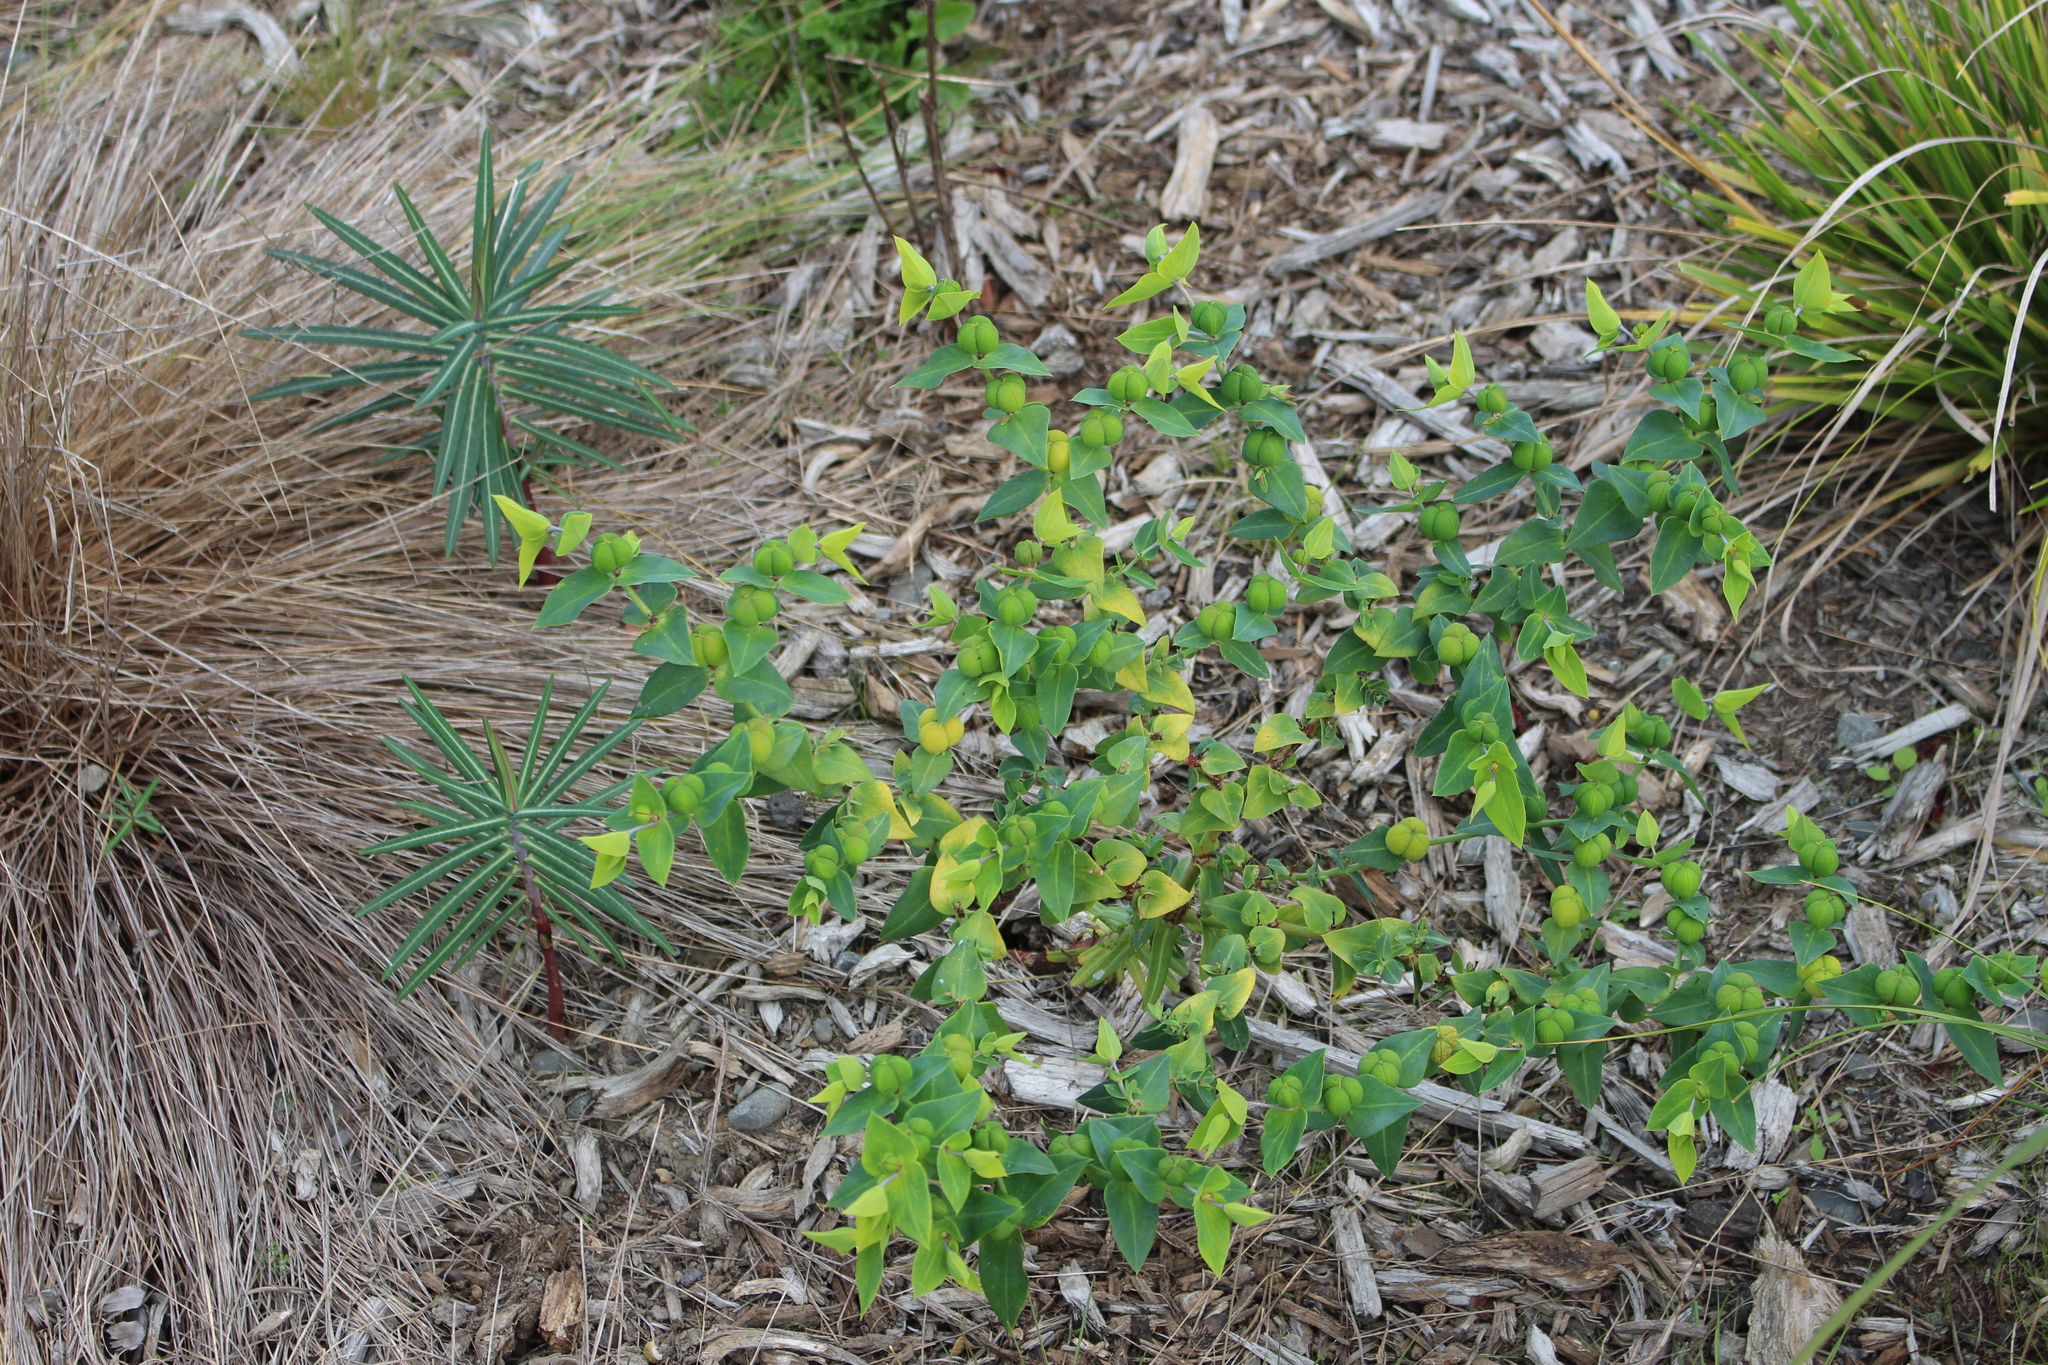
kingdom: Plantae
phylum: Tracheophyta
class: Magnoliopsida
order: Malpighiales
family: Euphorbiaceae
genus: Euphorbia
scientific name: Euphorbia lathyris
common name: Caper spurge
